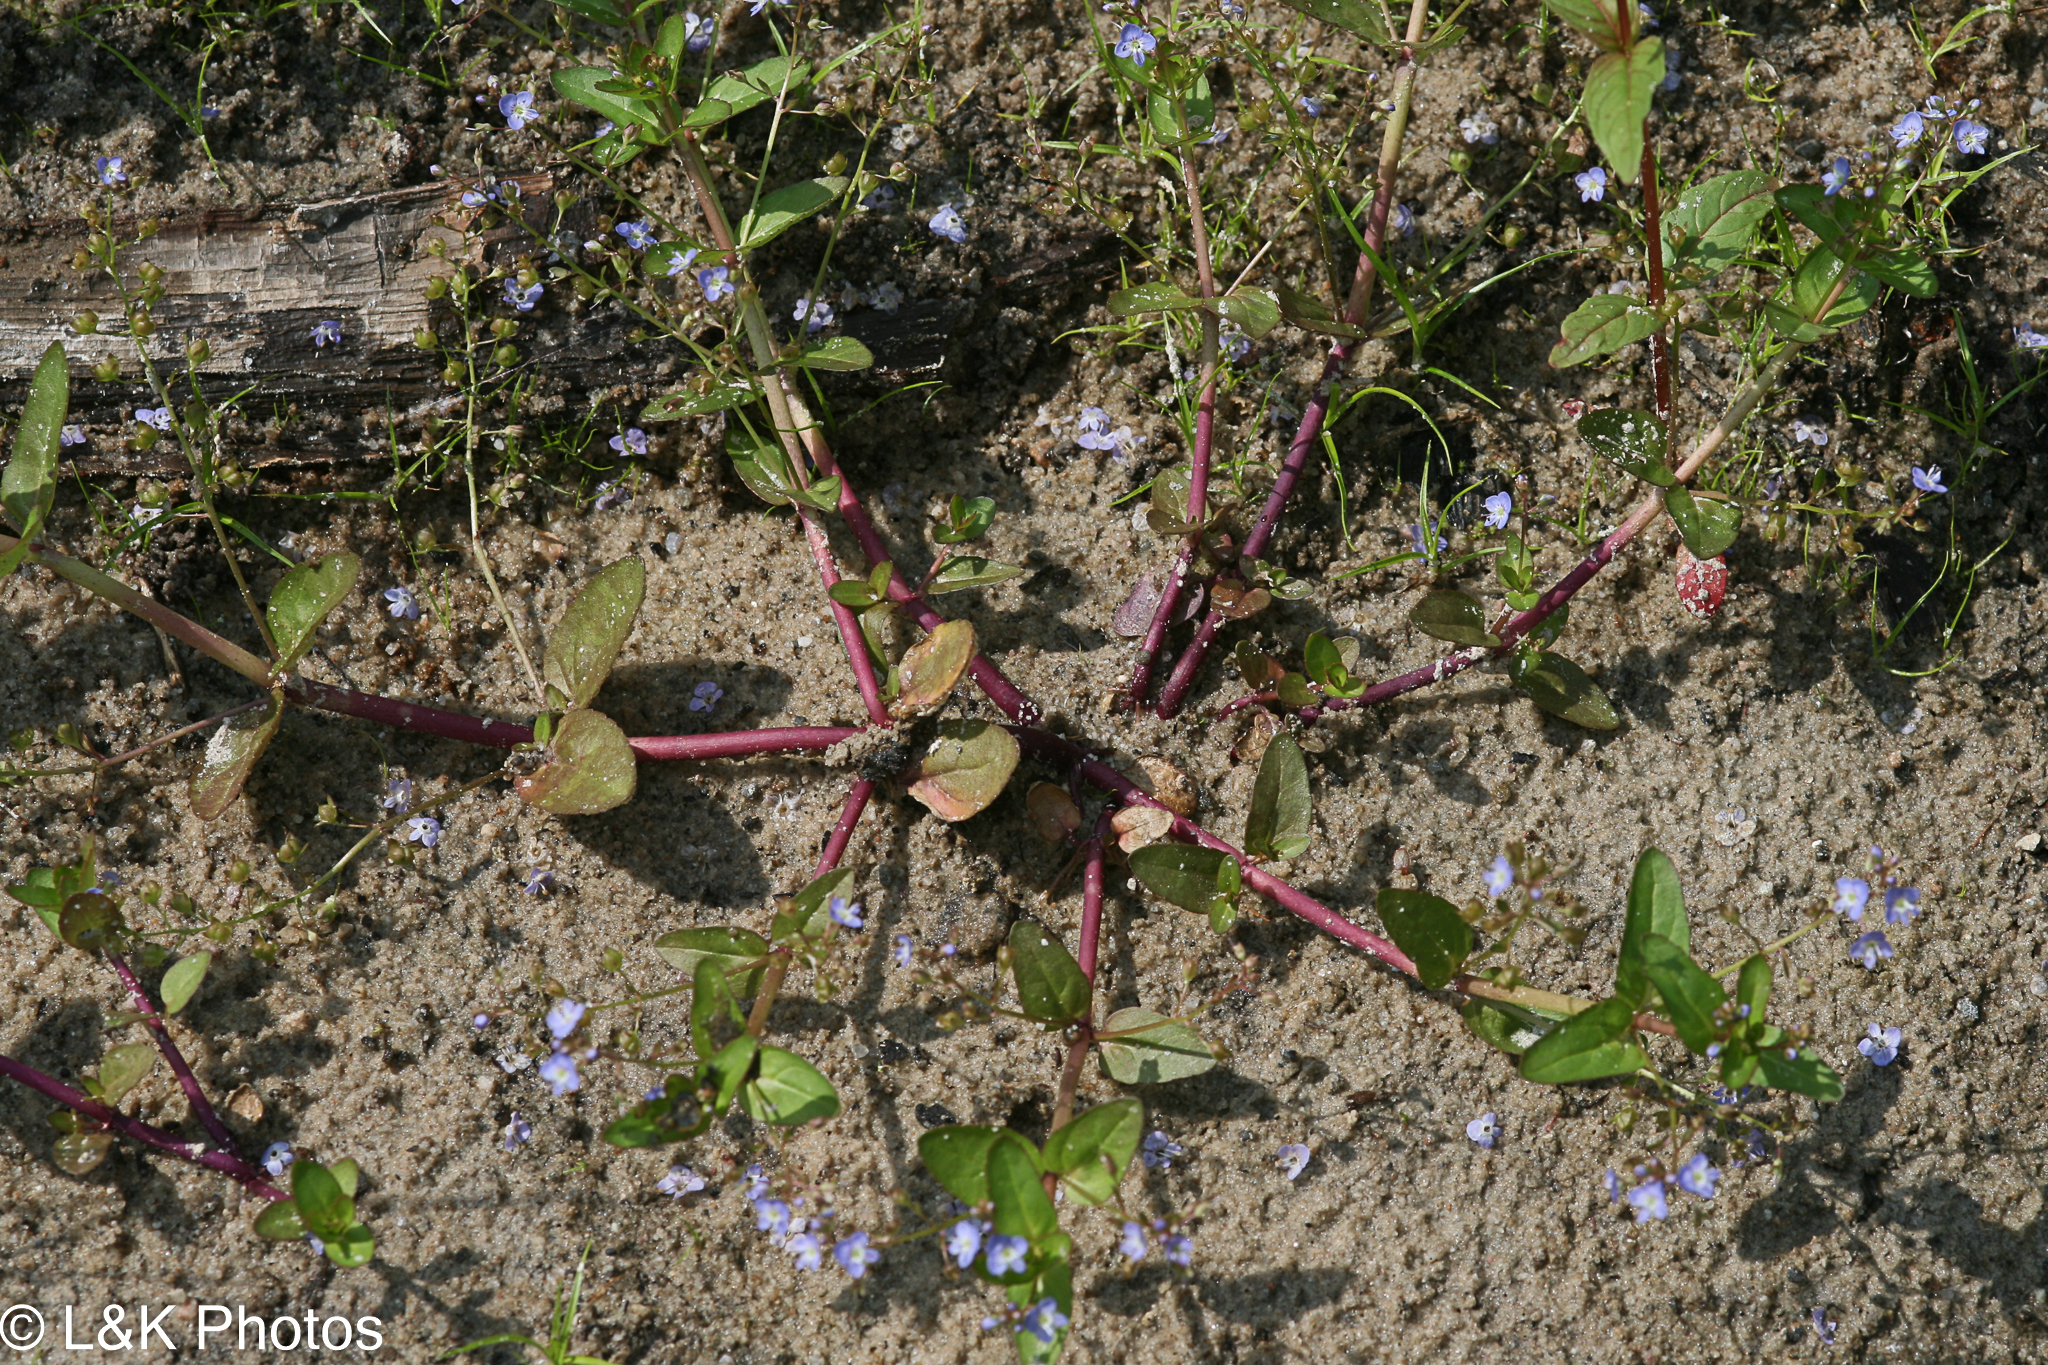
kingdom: Plantae
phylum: Tracheophyta
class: Magnoliopsida
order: Lamiales
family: Plantaginaceae
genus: Veronica
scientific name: Veronica americana
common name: American brooklime
